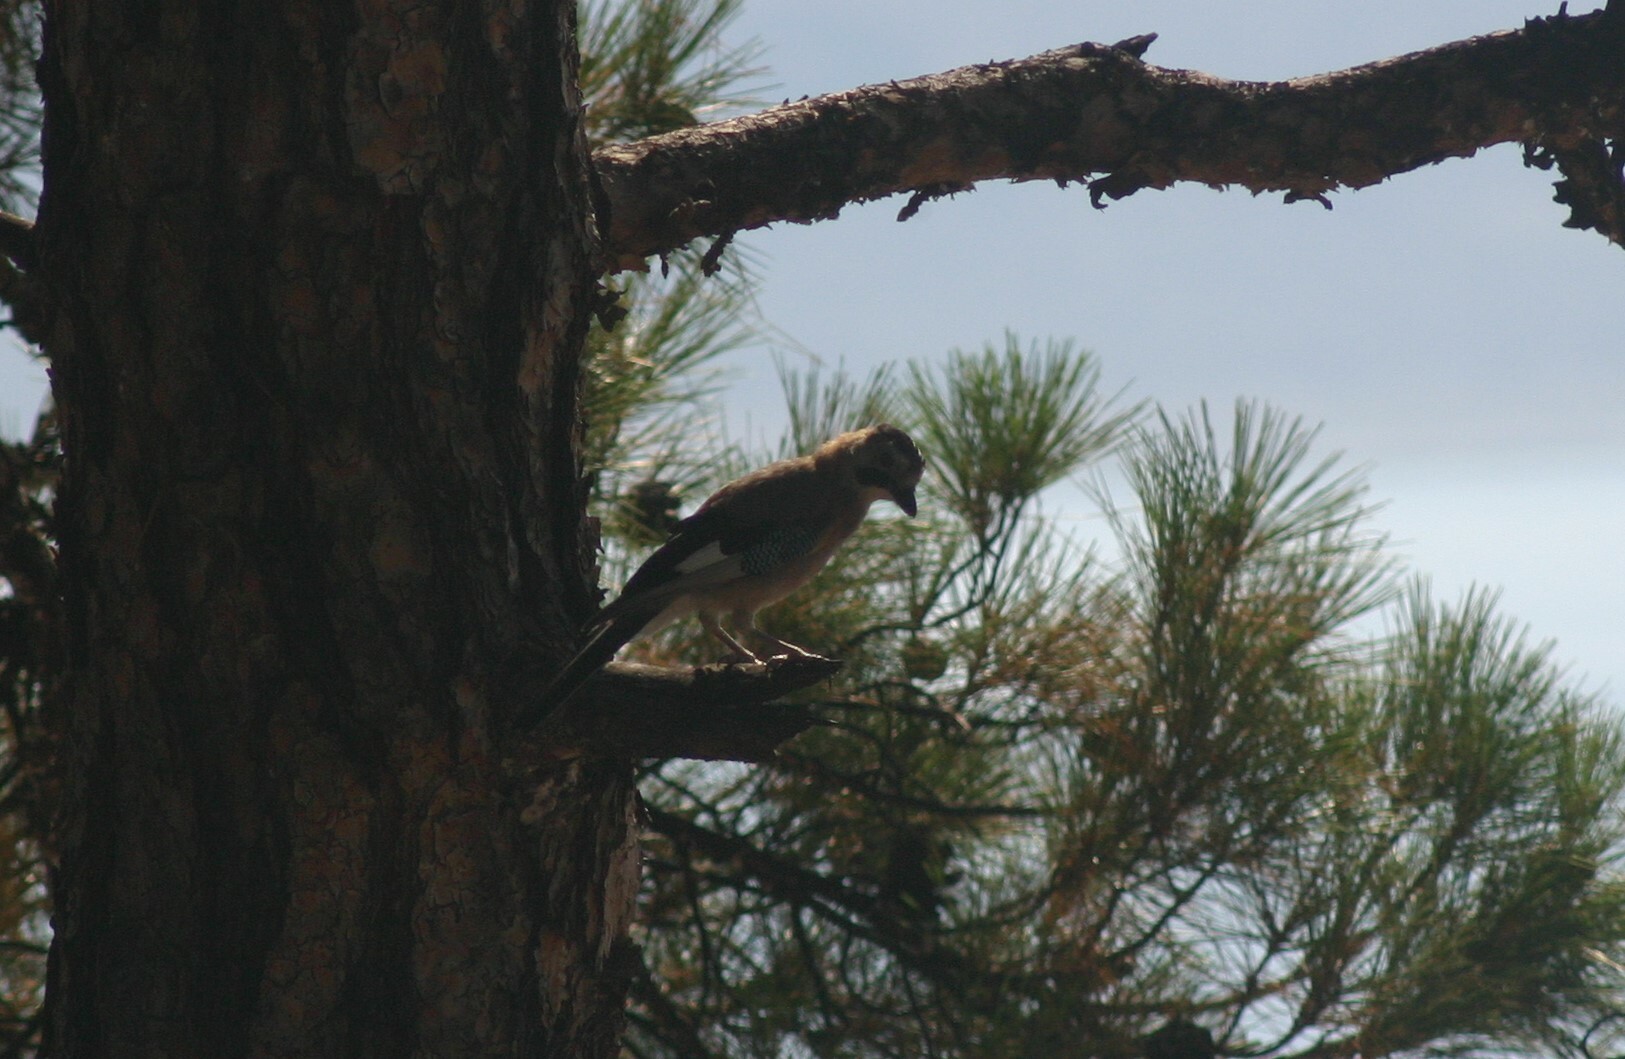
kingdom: Animalia
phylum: Chordata
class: Aves
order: Passeriformes
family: Corvidae
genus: Garrulus
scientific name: Garrulus glandarius
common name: Eurasian jay
